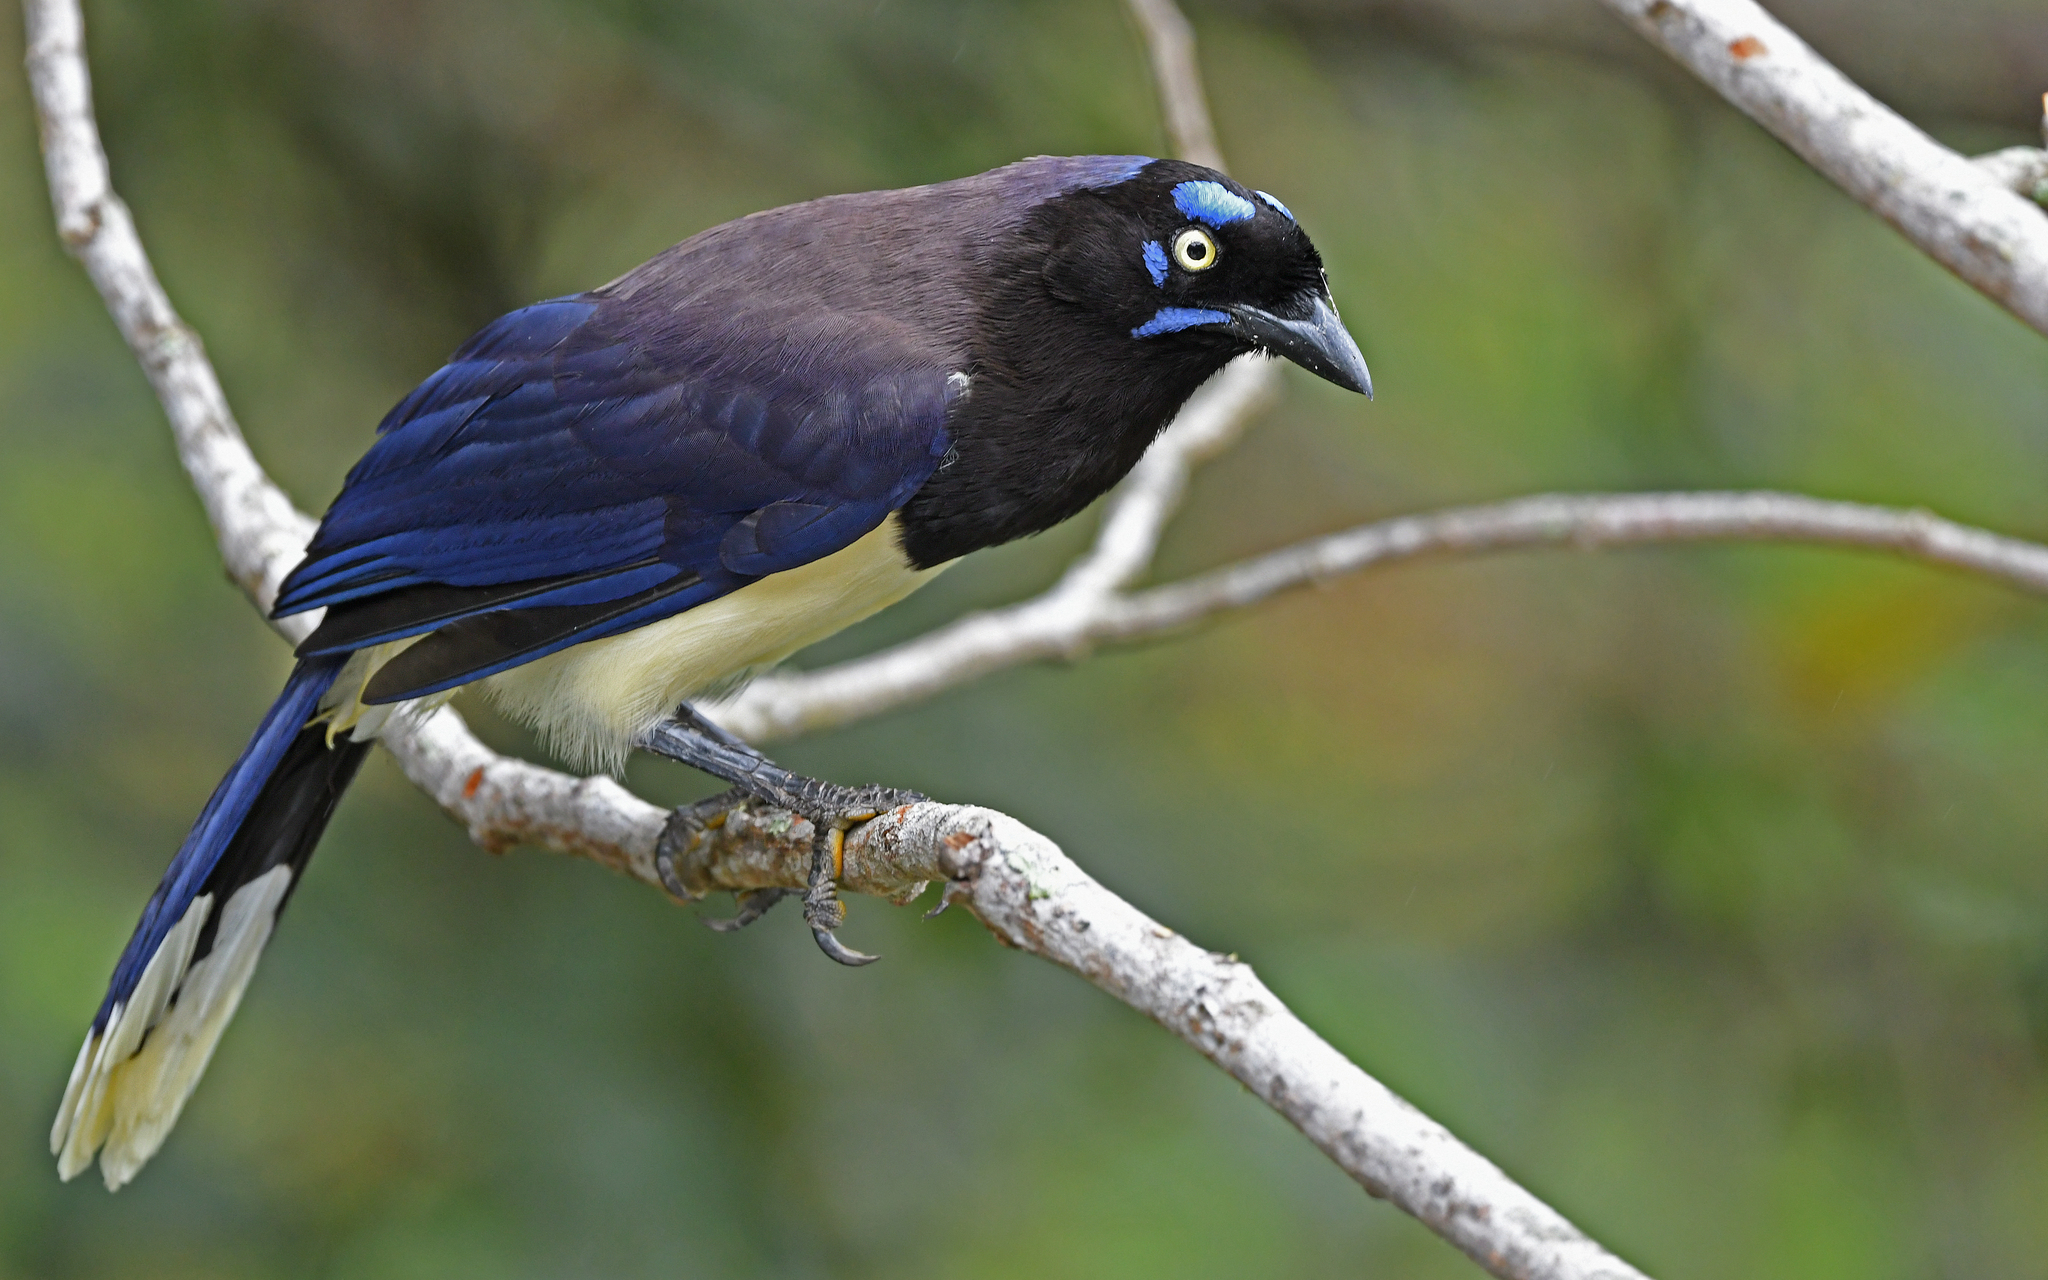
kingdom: Animalia
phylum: Chordata
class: Aves
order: Passeriformes
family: Corvidae
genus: Cyanocorax
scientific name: Cyanocorax affinis
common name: Black-chested jay
